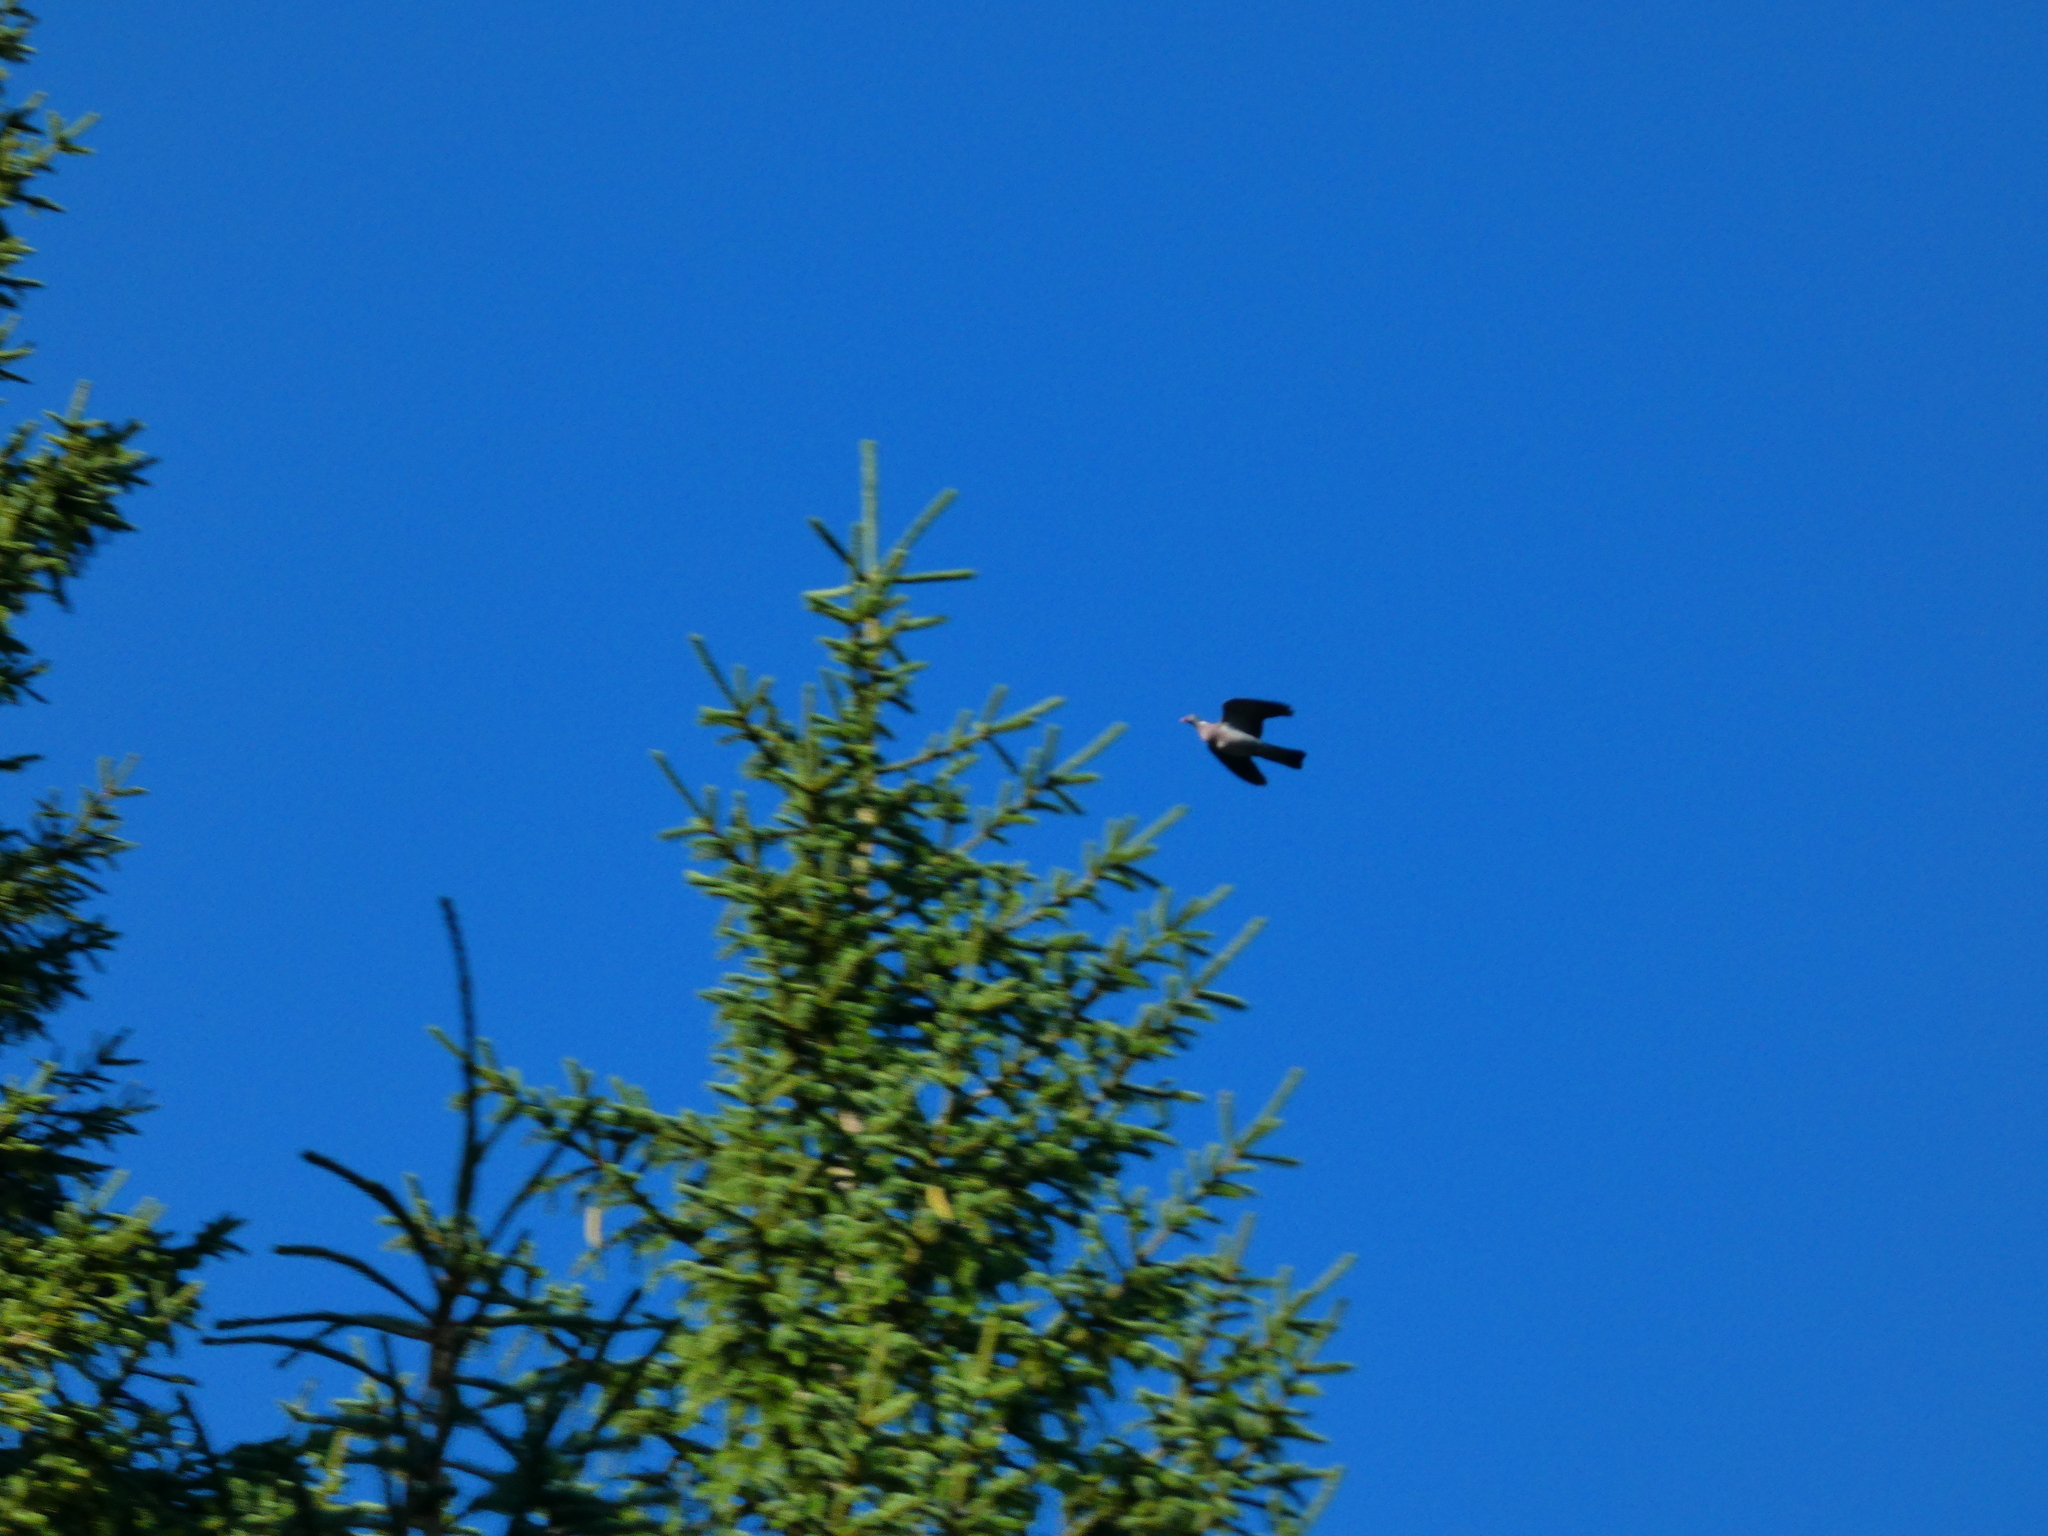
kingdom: Animalia
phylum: Chordata
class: Aves
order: Columbiformes
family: Columbidae
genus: Columba
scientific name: Columba palumbus
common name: Common wood pigeon
